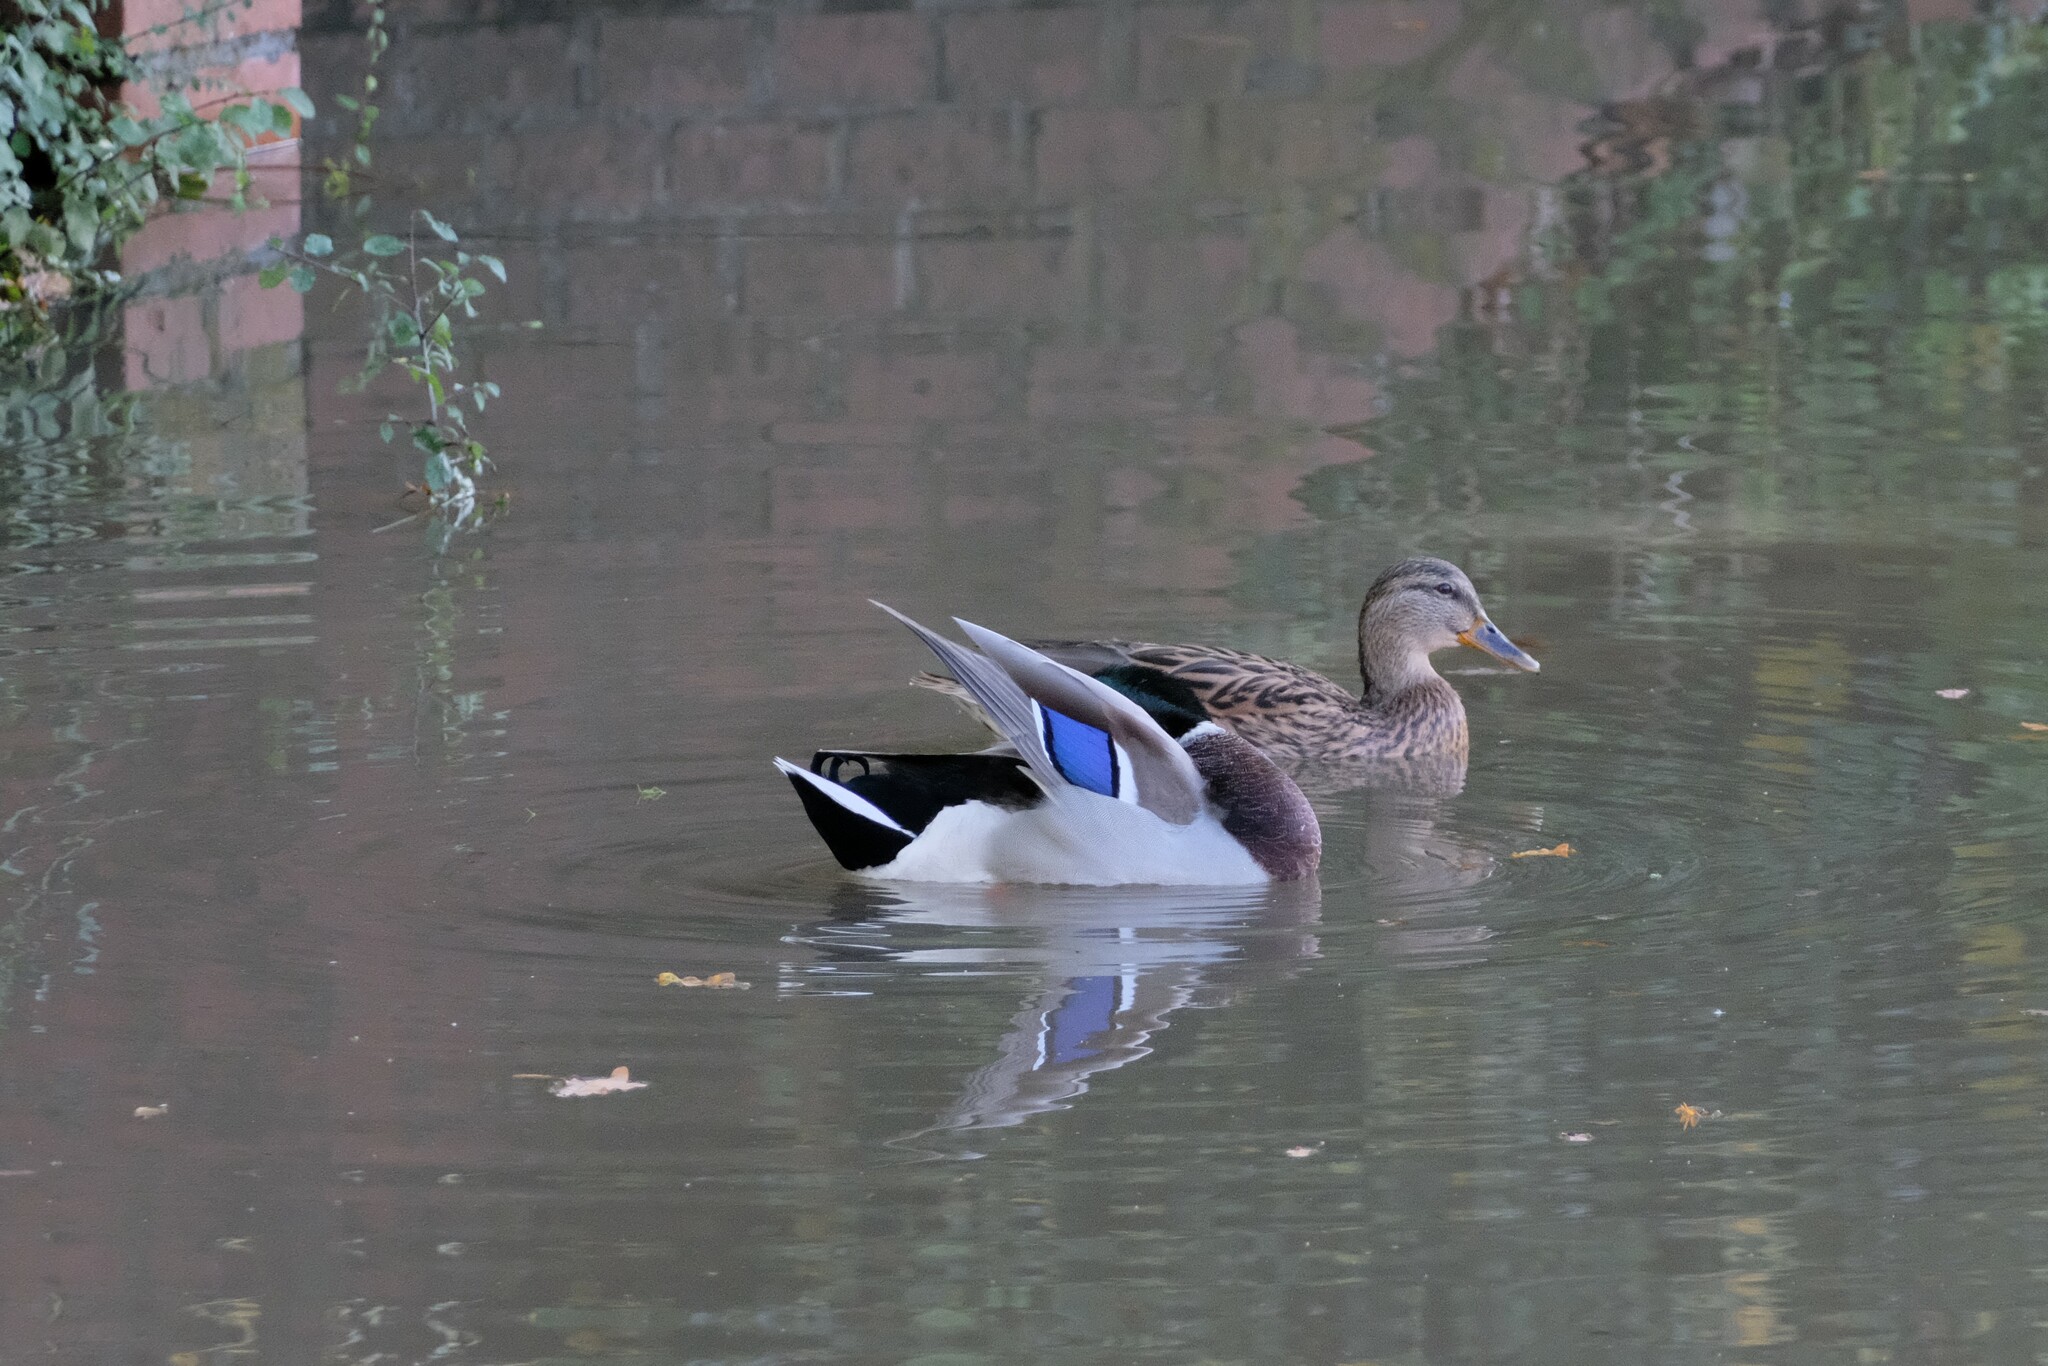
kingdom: Animalia
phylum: Chordata
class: Aves
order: Anseriformes
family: Anatidae
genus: Anas
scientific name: Anas platyrhynchos
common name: Mallard
